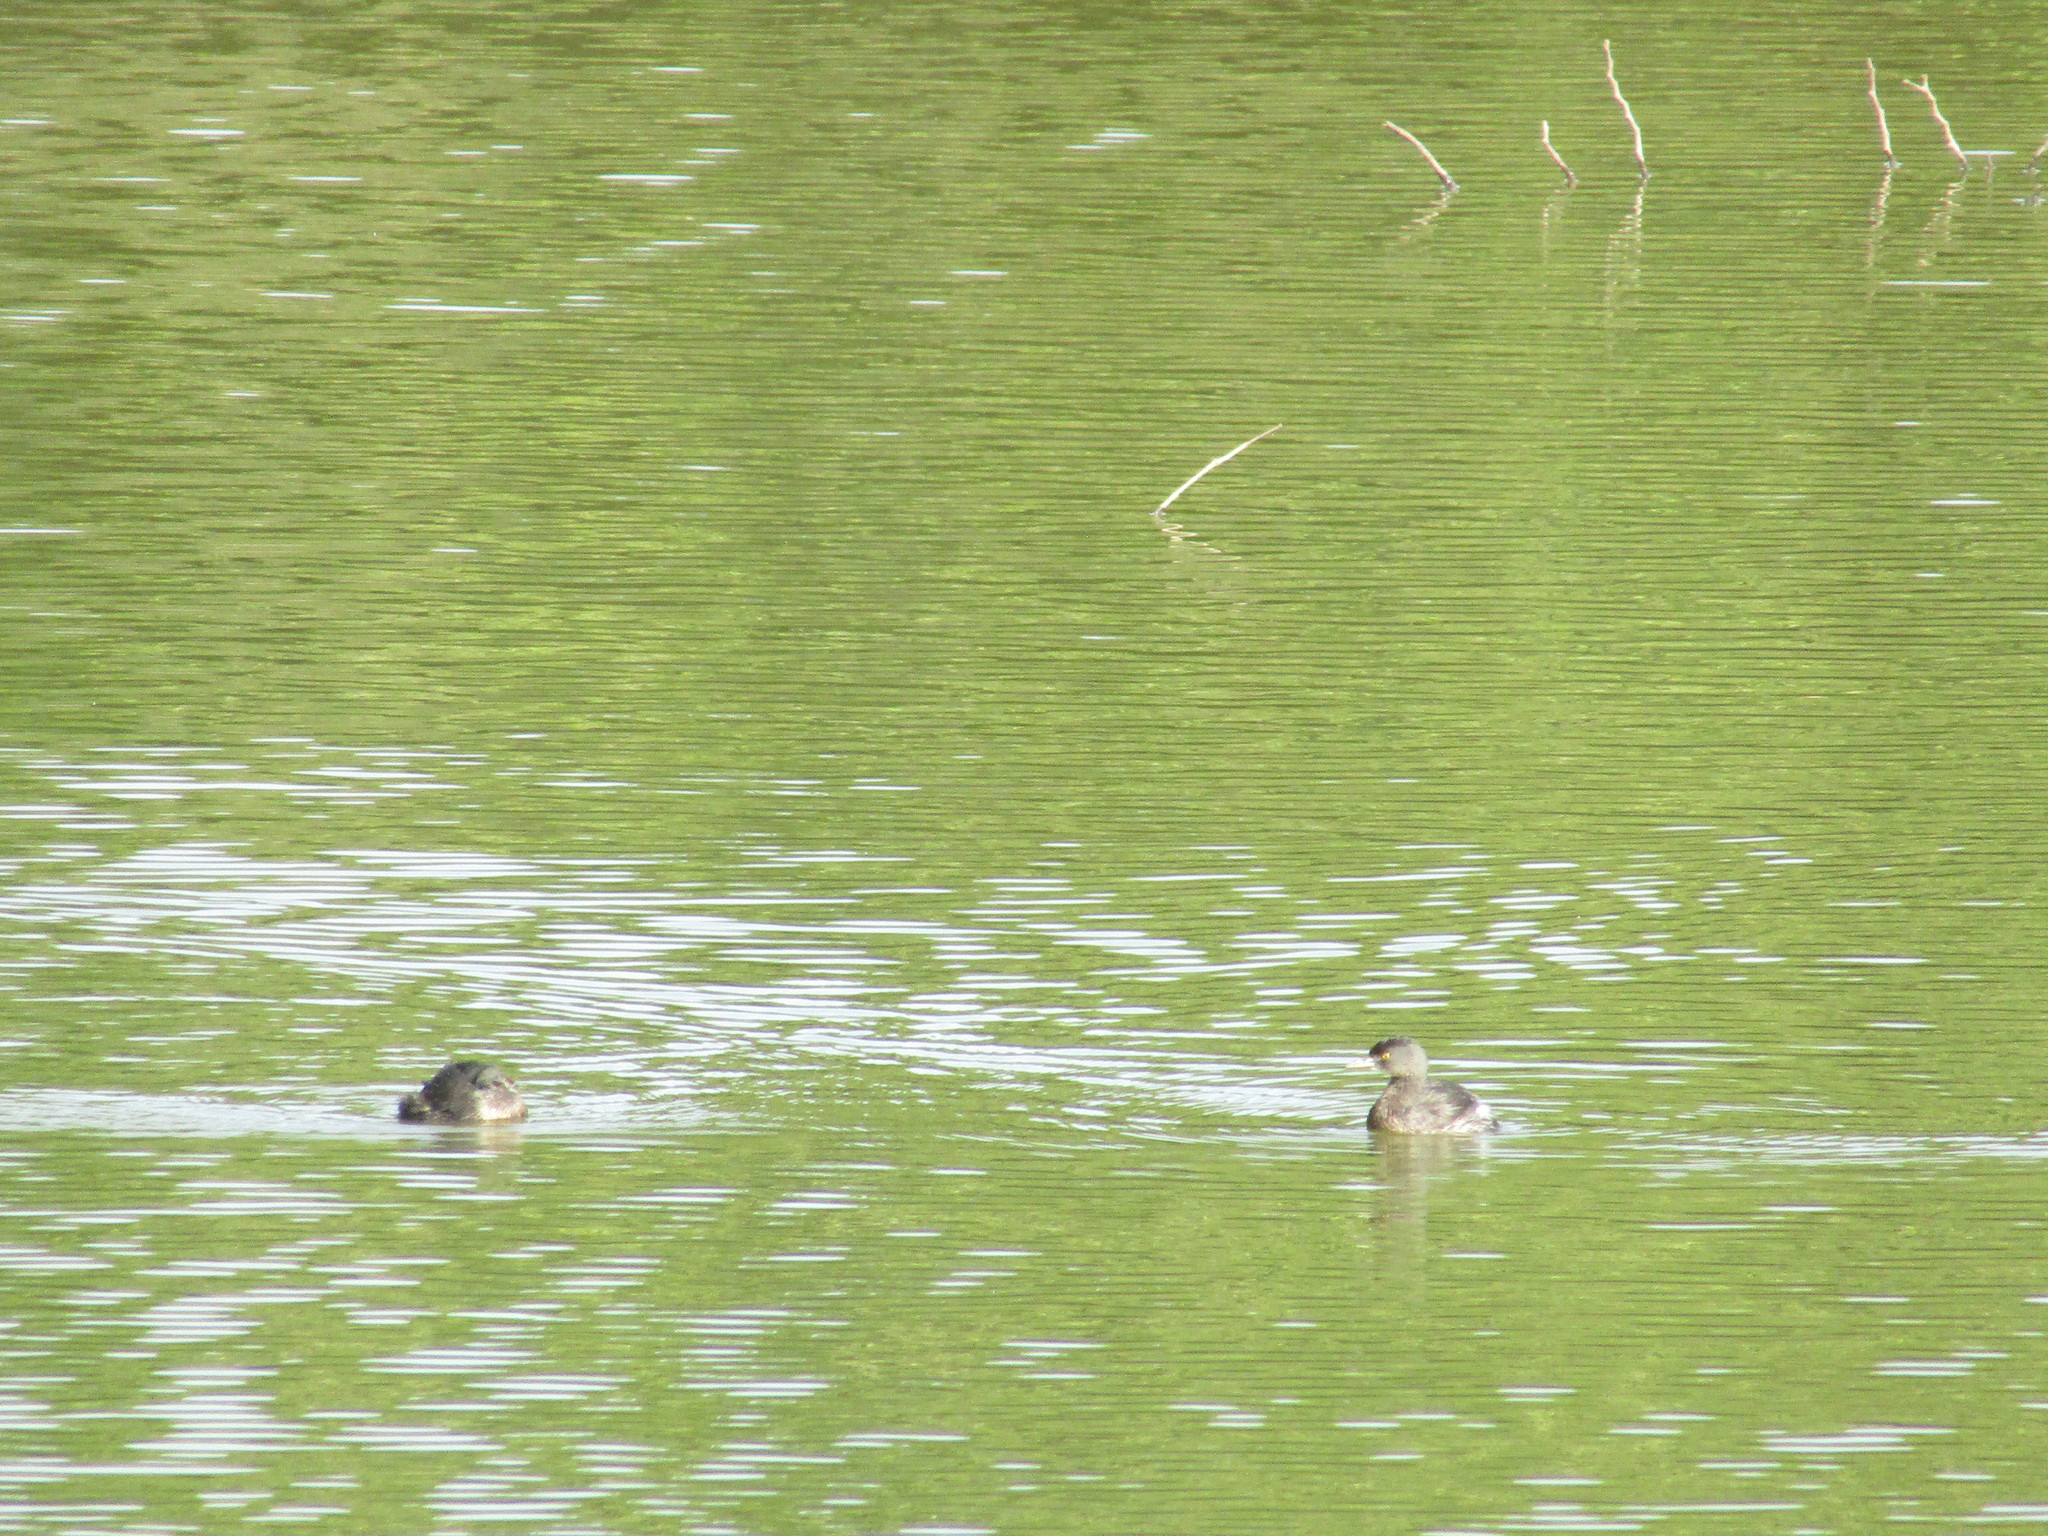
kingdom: Animalia
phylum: Chordata
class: Aves
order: Podicipediformes
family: Podicipedidae
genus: Tachybaptus
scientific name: Tachybaptus dominicus
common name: Least grebe
